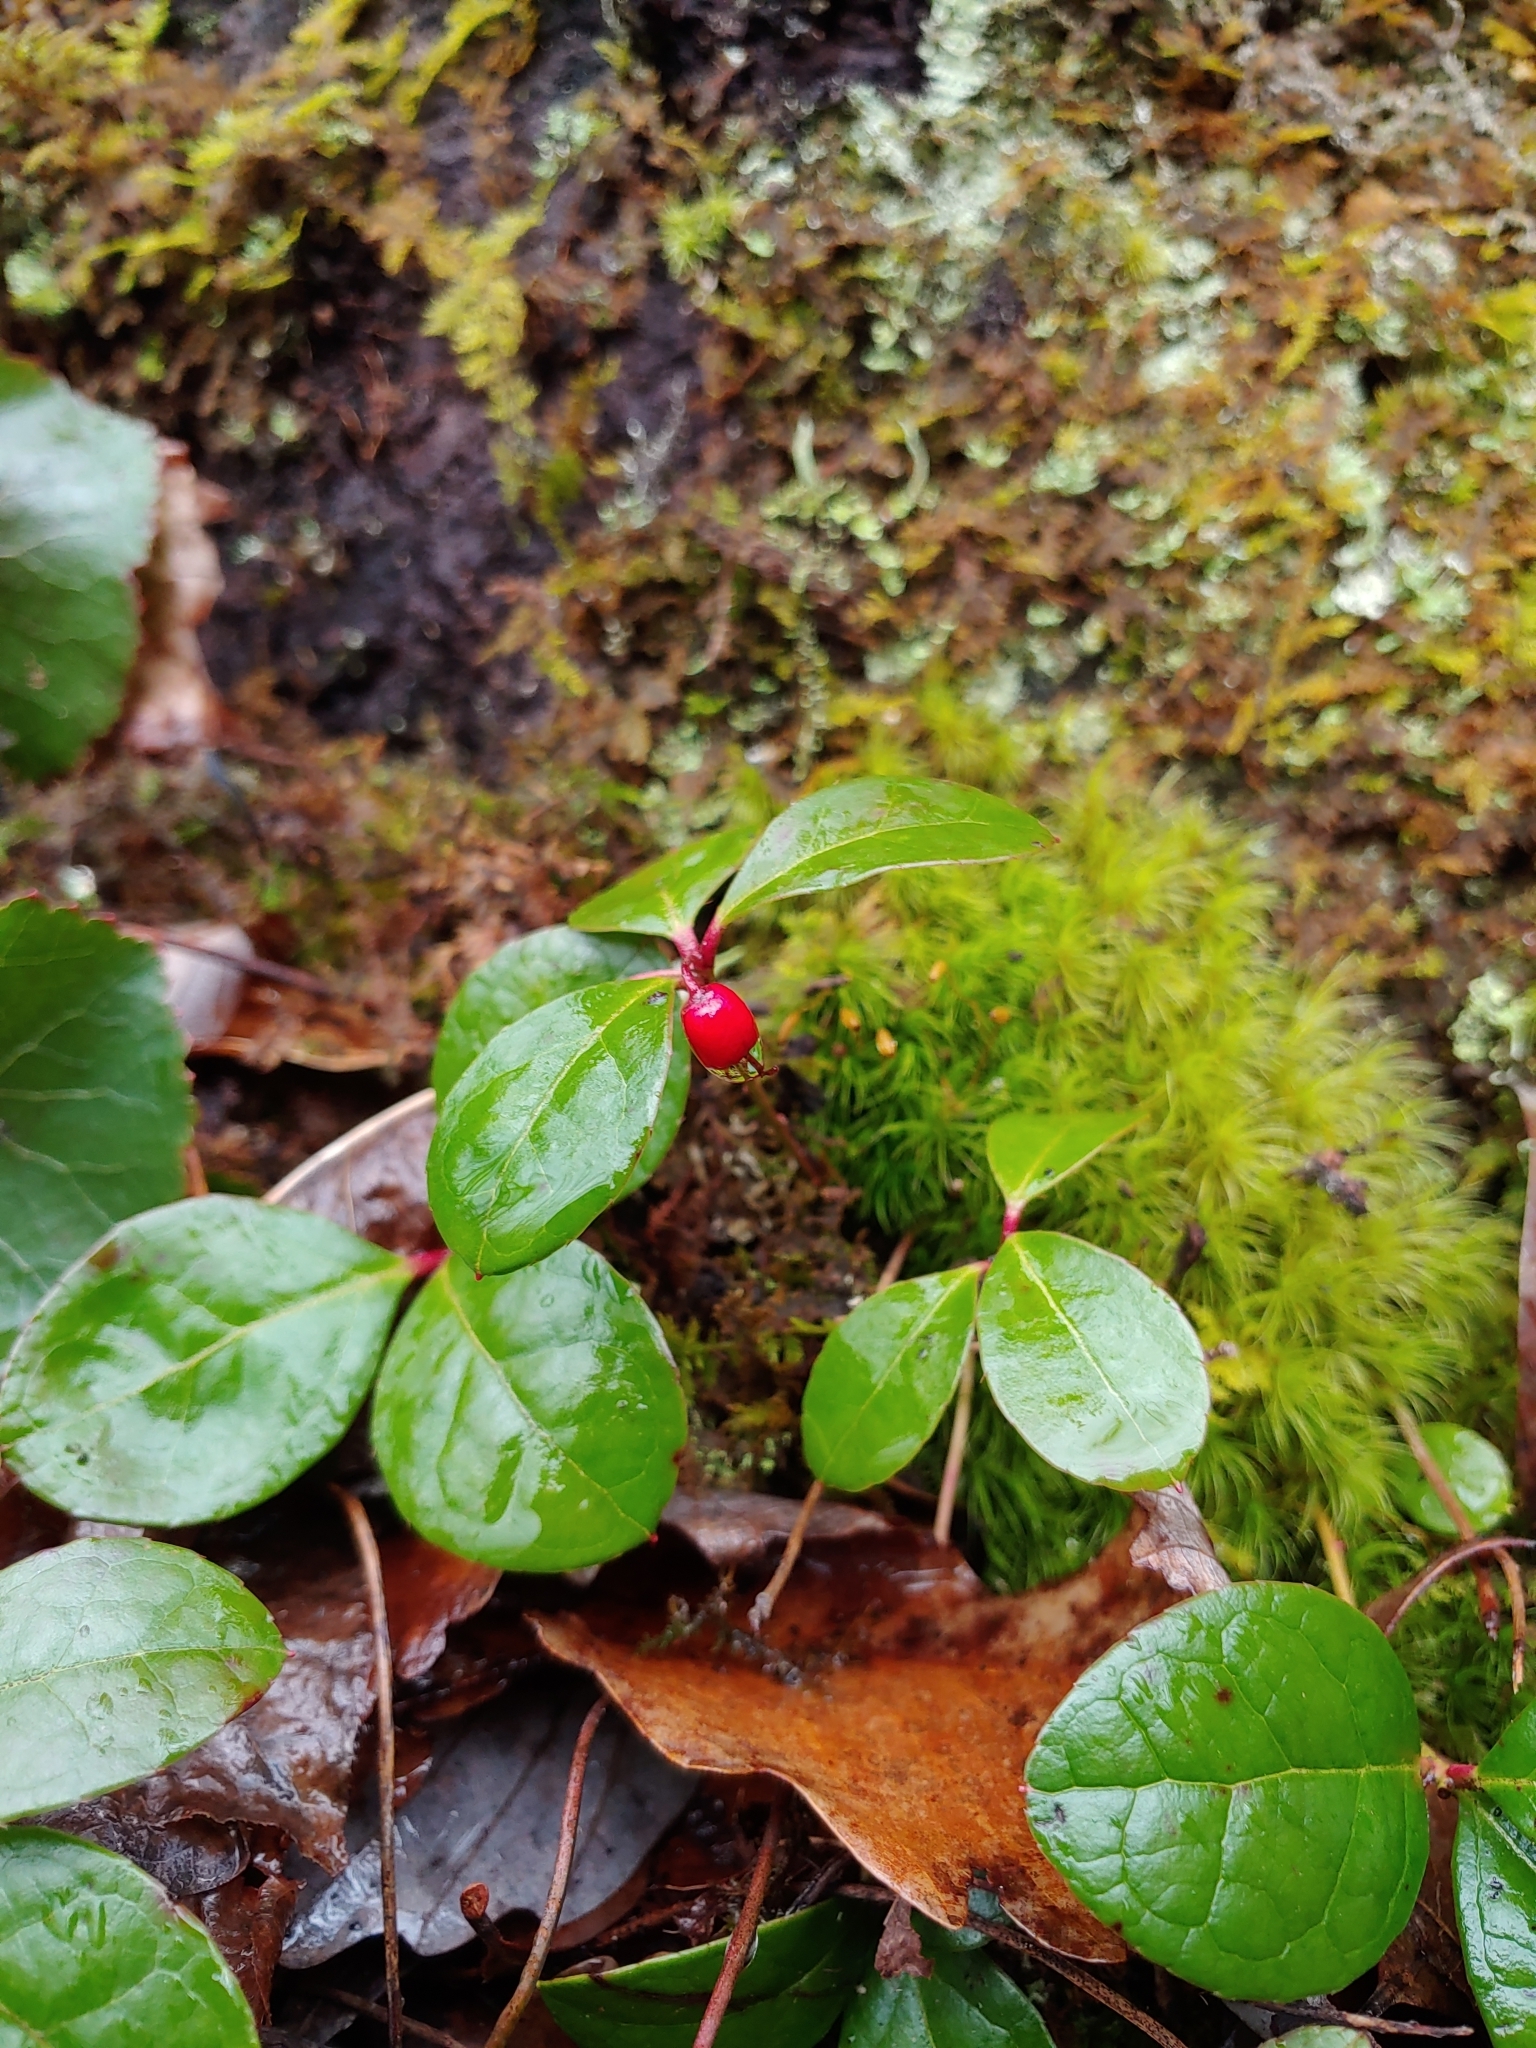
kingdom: Plantae
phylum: Tracheophyta
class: Magnoliopsida
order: Ericales
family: Ericaceae
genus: Gaultheria
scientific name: Gaultheria procumbens
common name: Checkerberry
